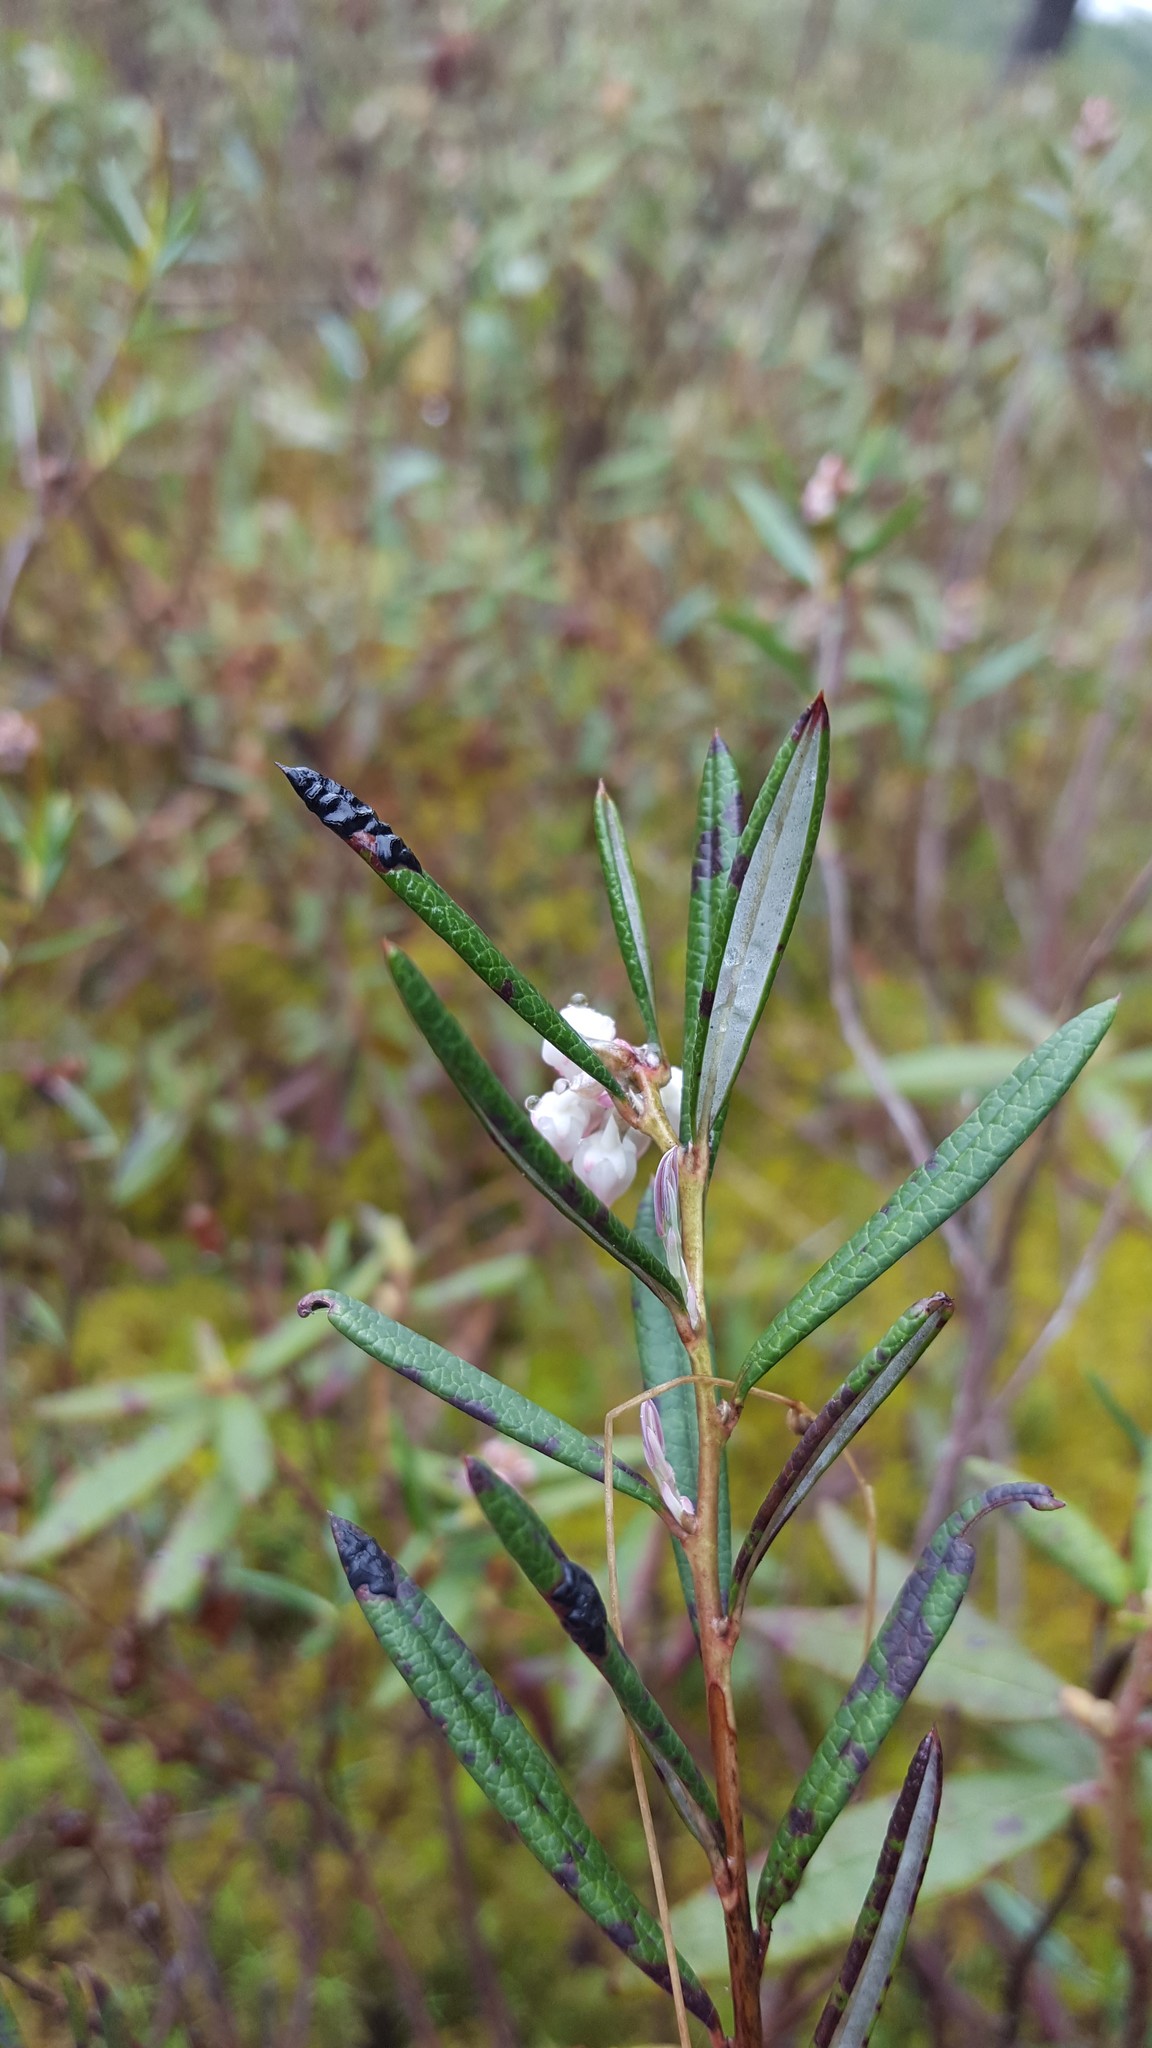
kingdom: Plantae
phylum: Tracheophyta
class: Magnoliopsida
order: Ericales
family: Ericaceae
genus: Andromeda
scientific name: Andromeda polifolia
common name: Bog-rosemary
